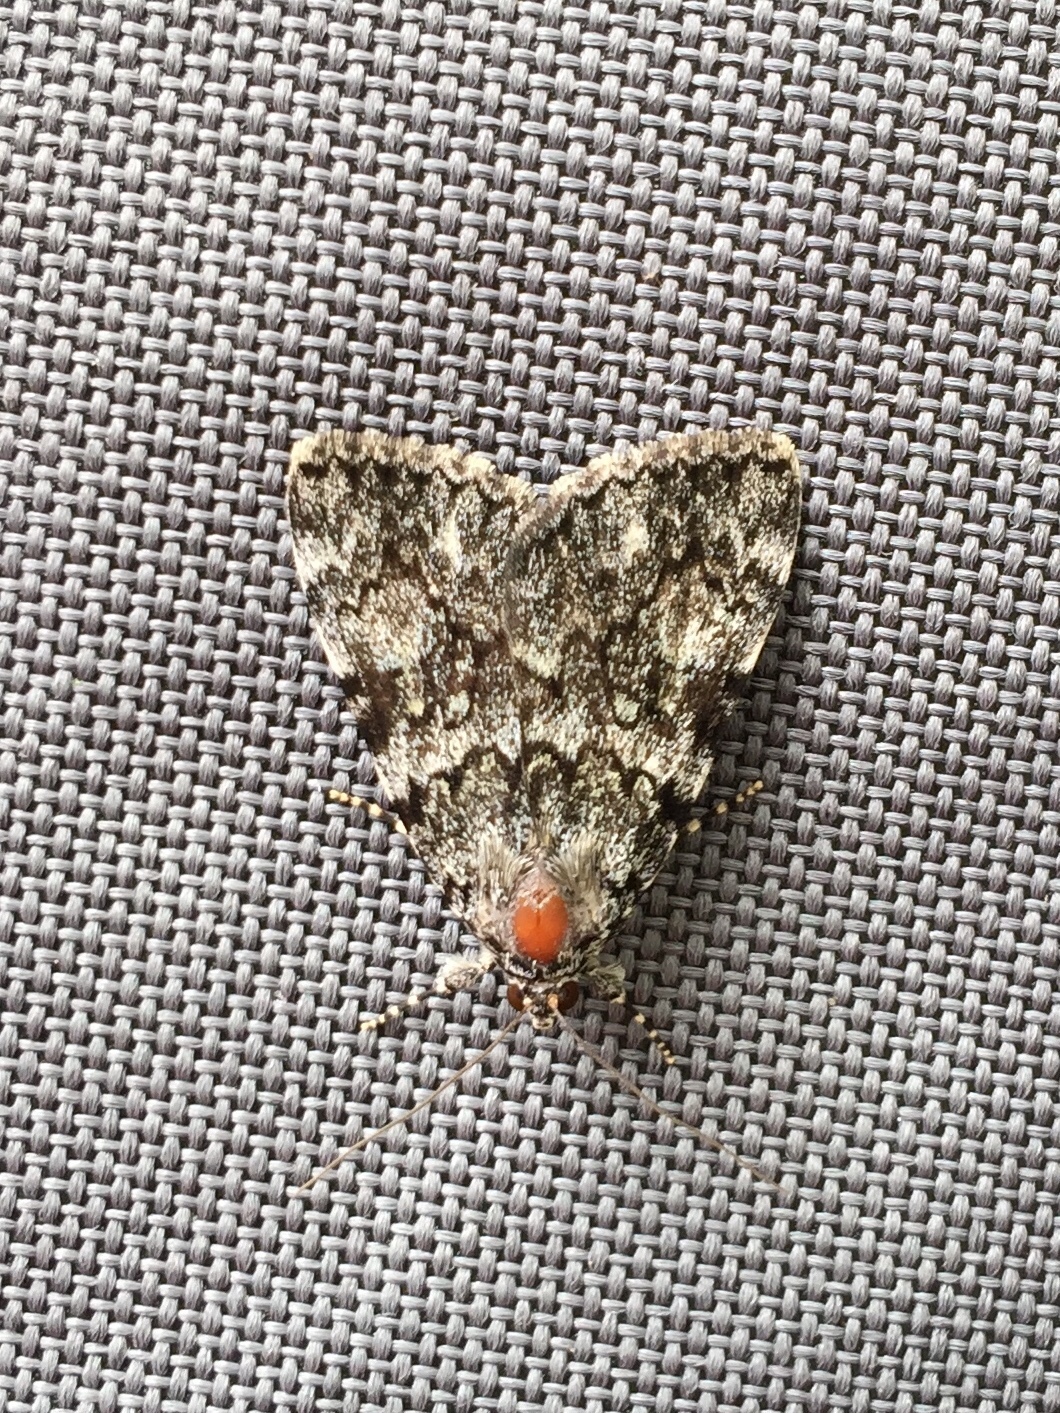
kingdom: Animalia
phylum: Arthropoda
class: Insecta
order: Lepidoptera
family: Erebidae
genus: Catocala
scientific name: Catocala lineella
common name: Little lined underwing
